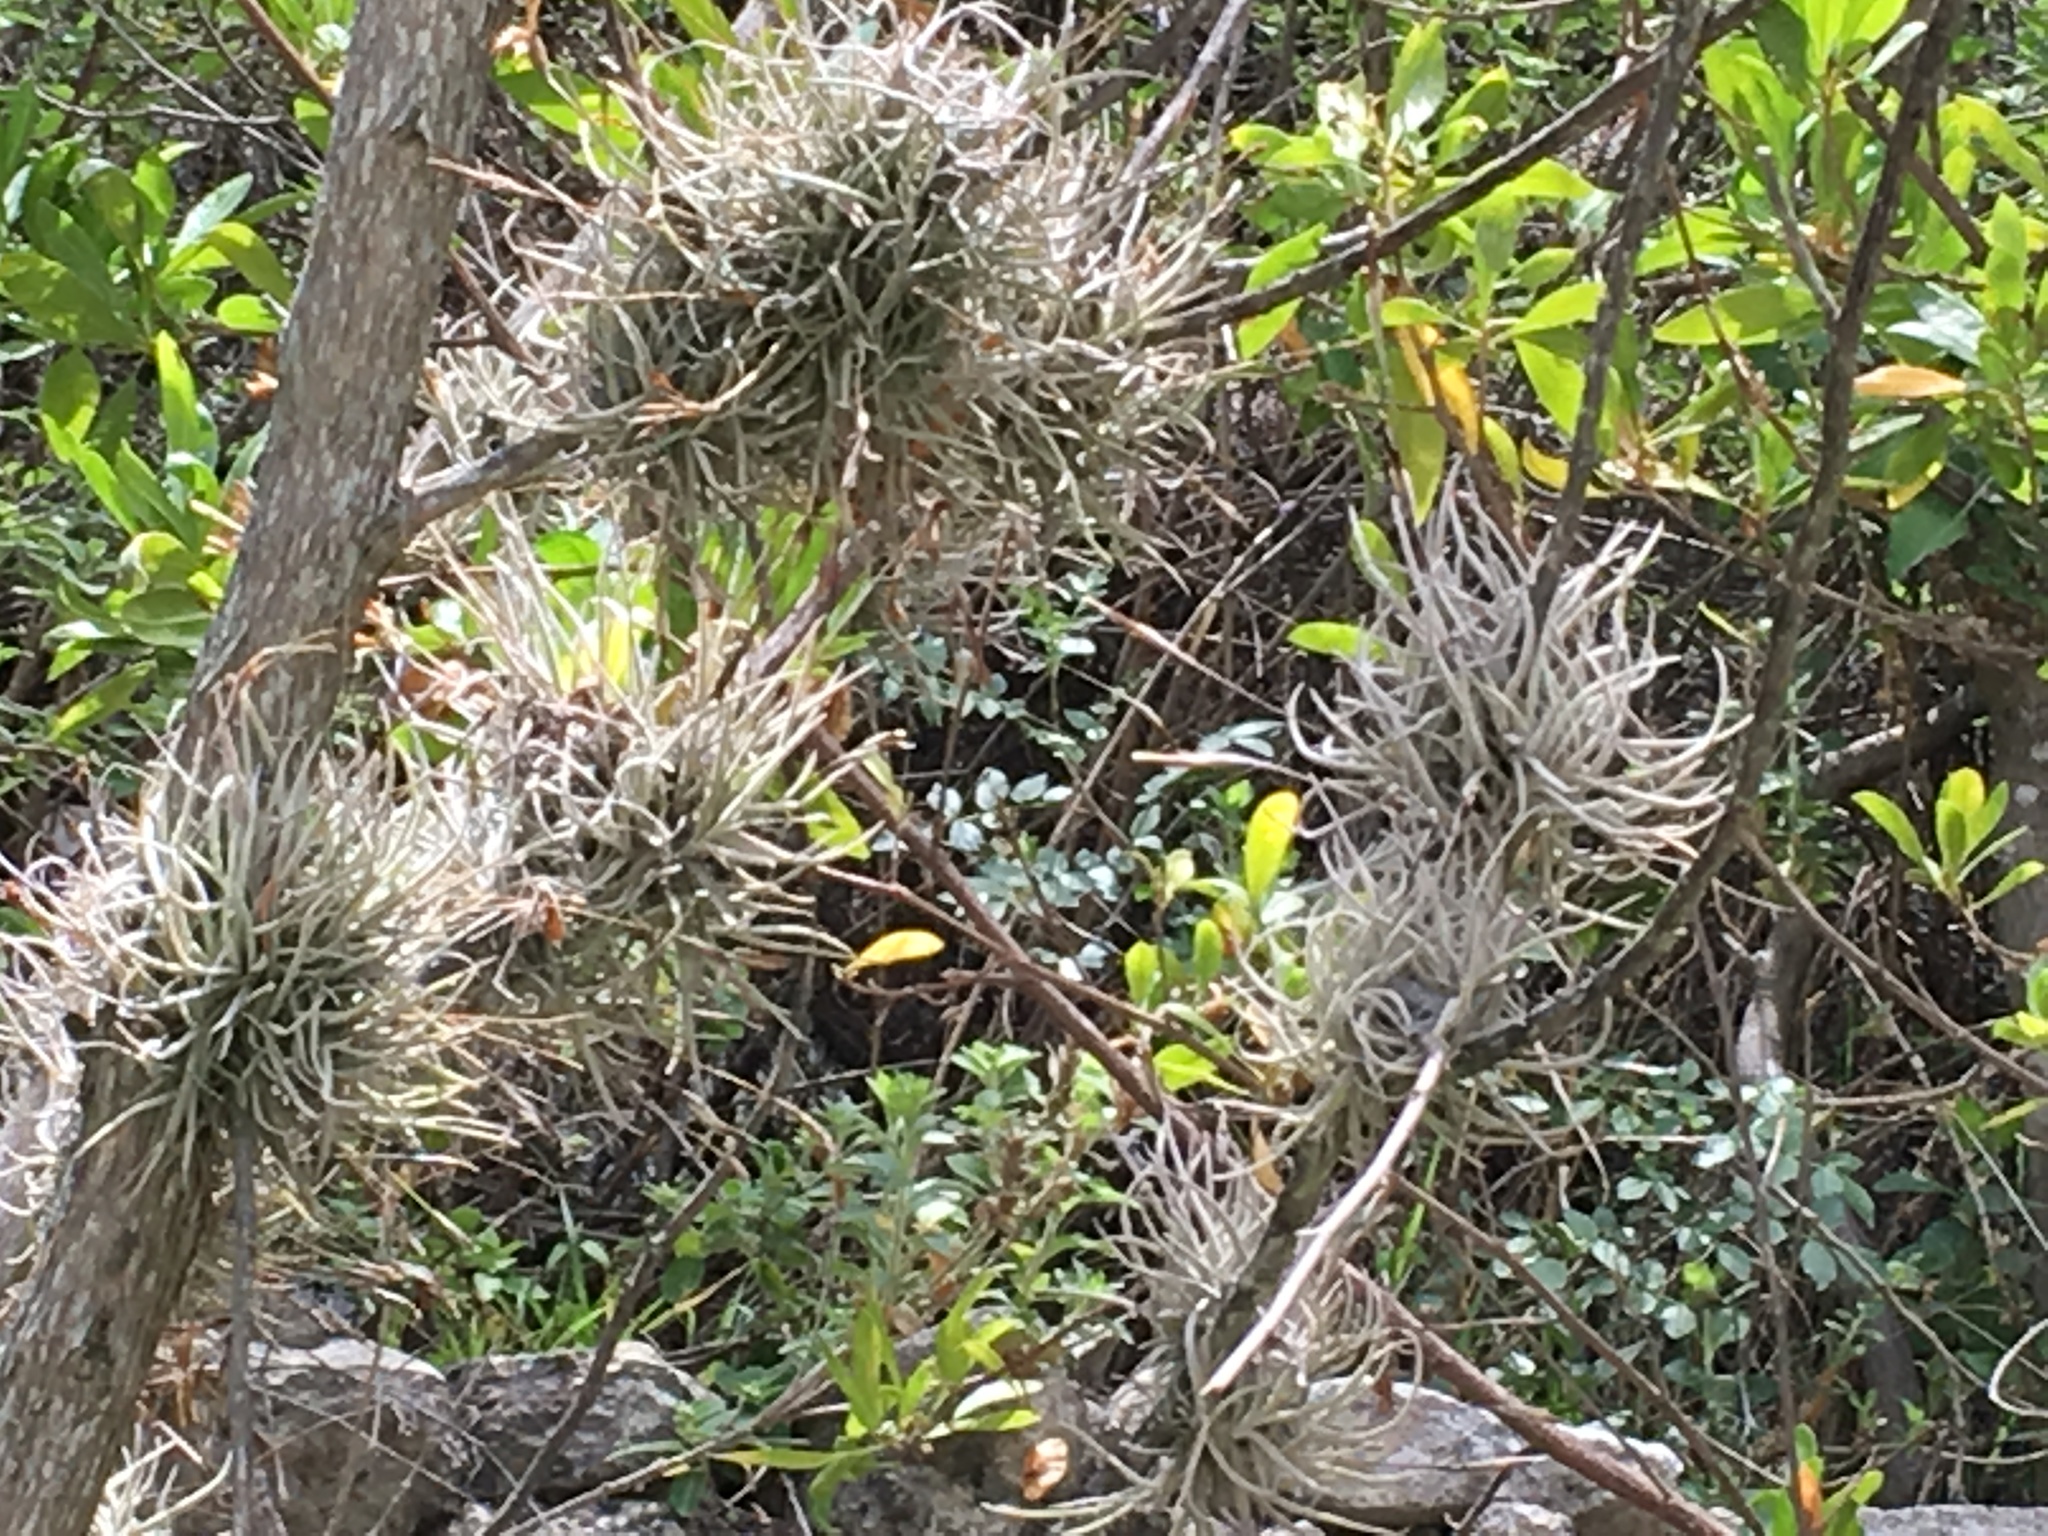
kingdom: Plantae
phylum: Tracheophyta
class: Liliopsida
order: Poales
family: Bromeliaceae
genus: Tillandsia
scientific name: Tillandsia recurvata
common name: Small ballmoss
